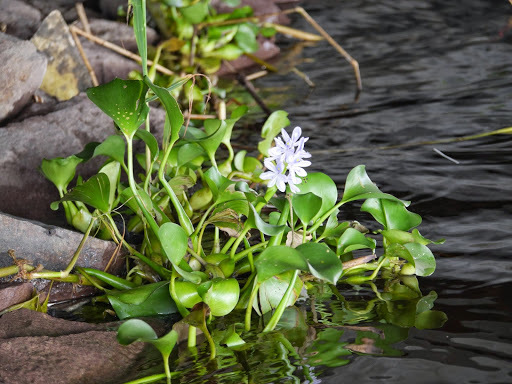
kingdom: Plantae
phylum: Tracheophyta
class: Liliopsida
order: Commelinales
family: Pontederiaceae
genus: Pontederia
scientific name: Pontederia crassipes
